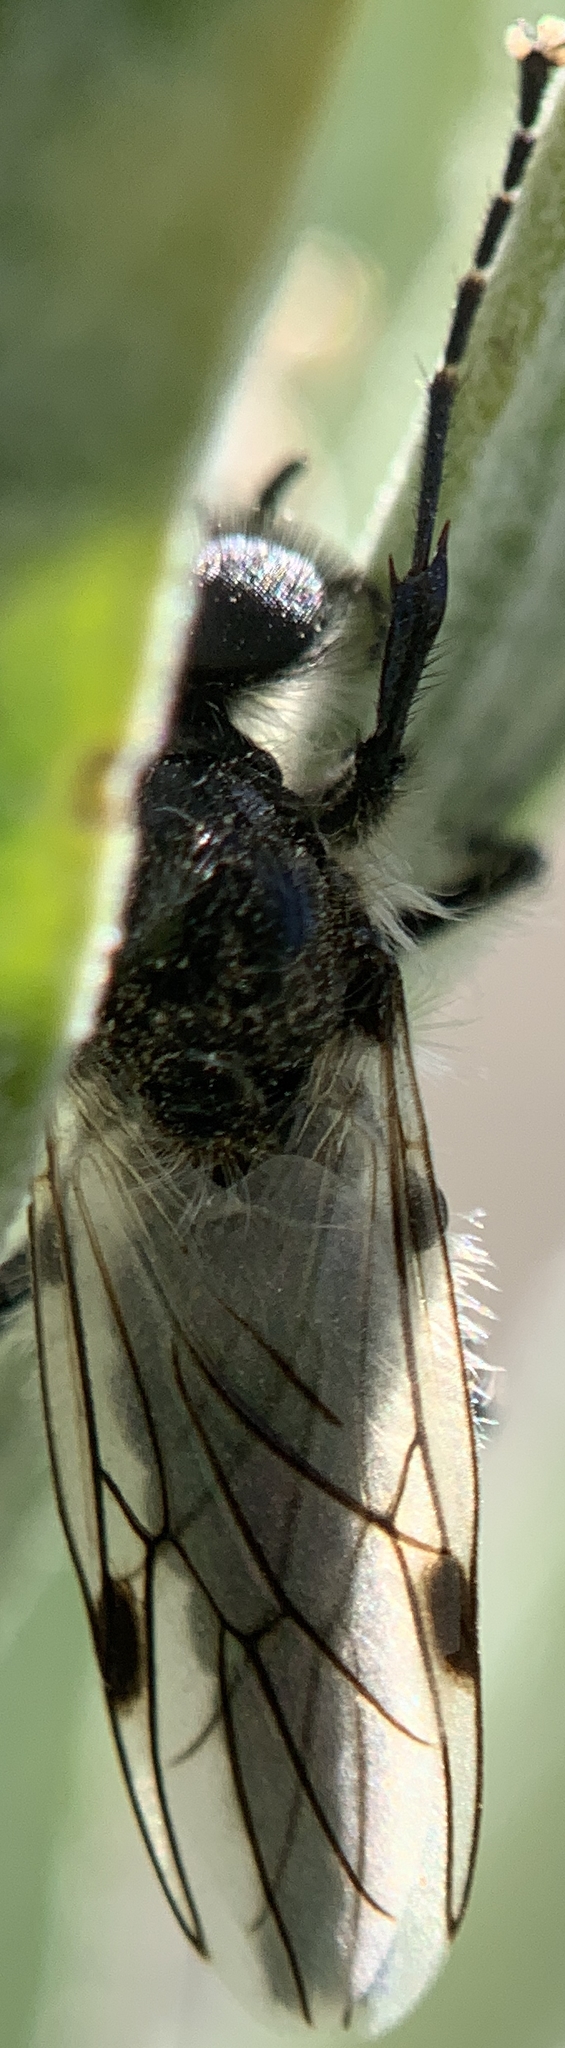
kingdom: Animalia
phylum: Arthropoda
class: Insecta
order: Diptera
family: Bibionidae
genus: Bibio
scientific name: Bibio albipennis
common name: White-winged march fly
